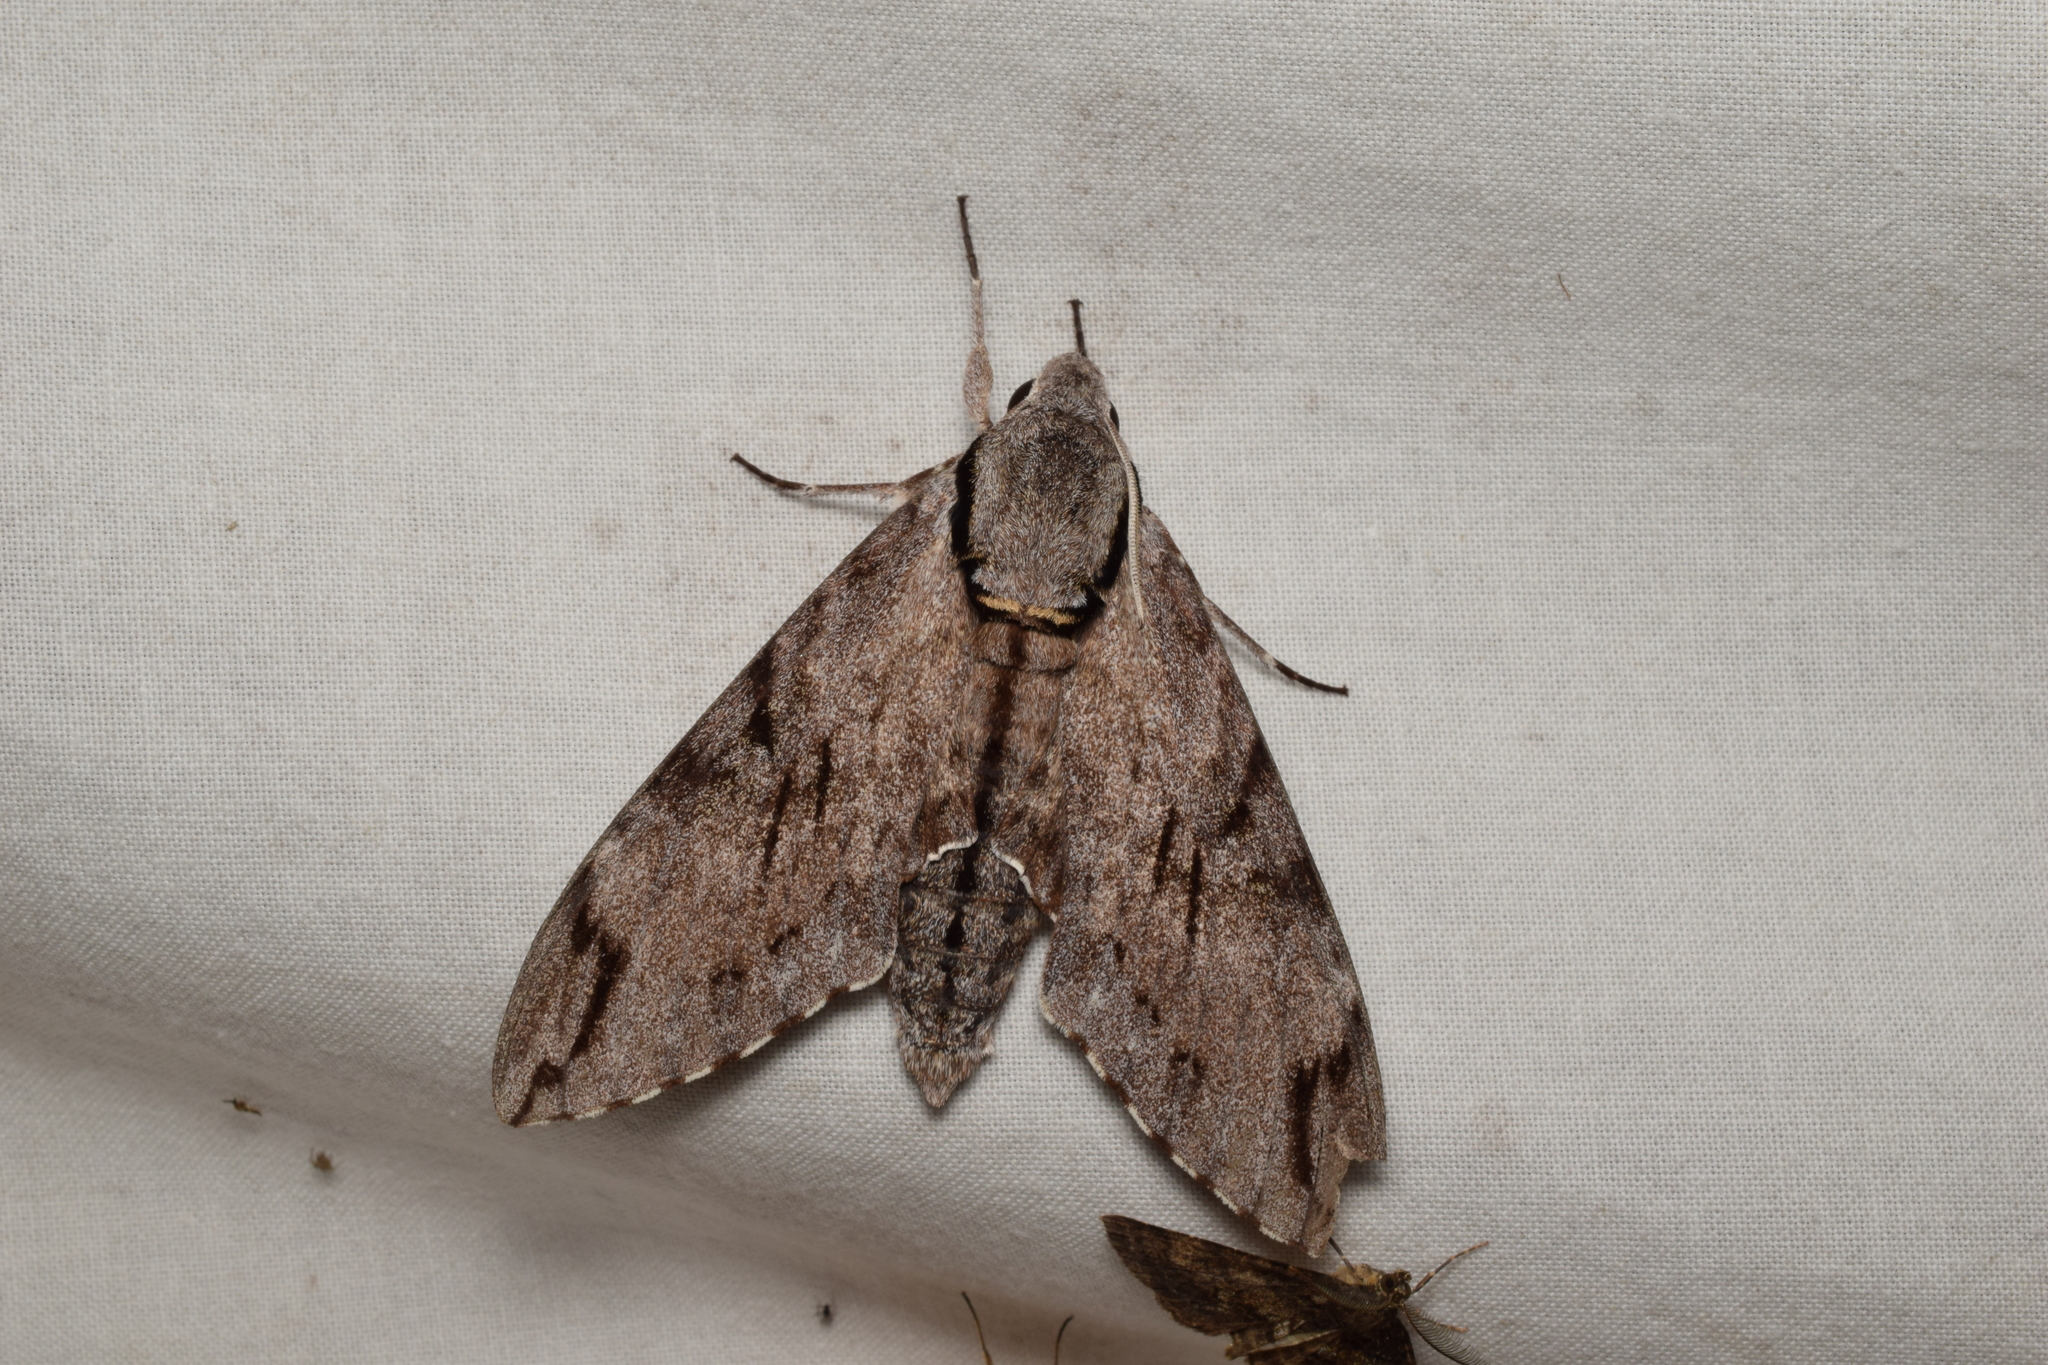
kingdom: Animalia
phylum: Arthropoda
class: Insecta
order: Lepidoptera
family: Sphingidae
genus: Psilogramma
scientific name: Psilogramma increta
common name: Gray hawk moth
